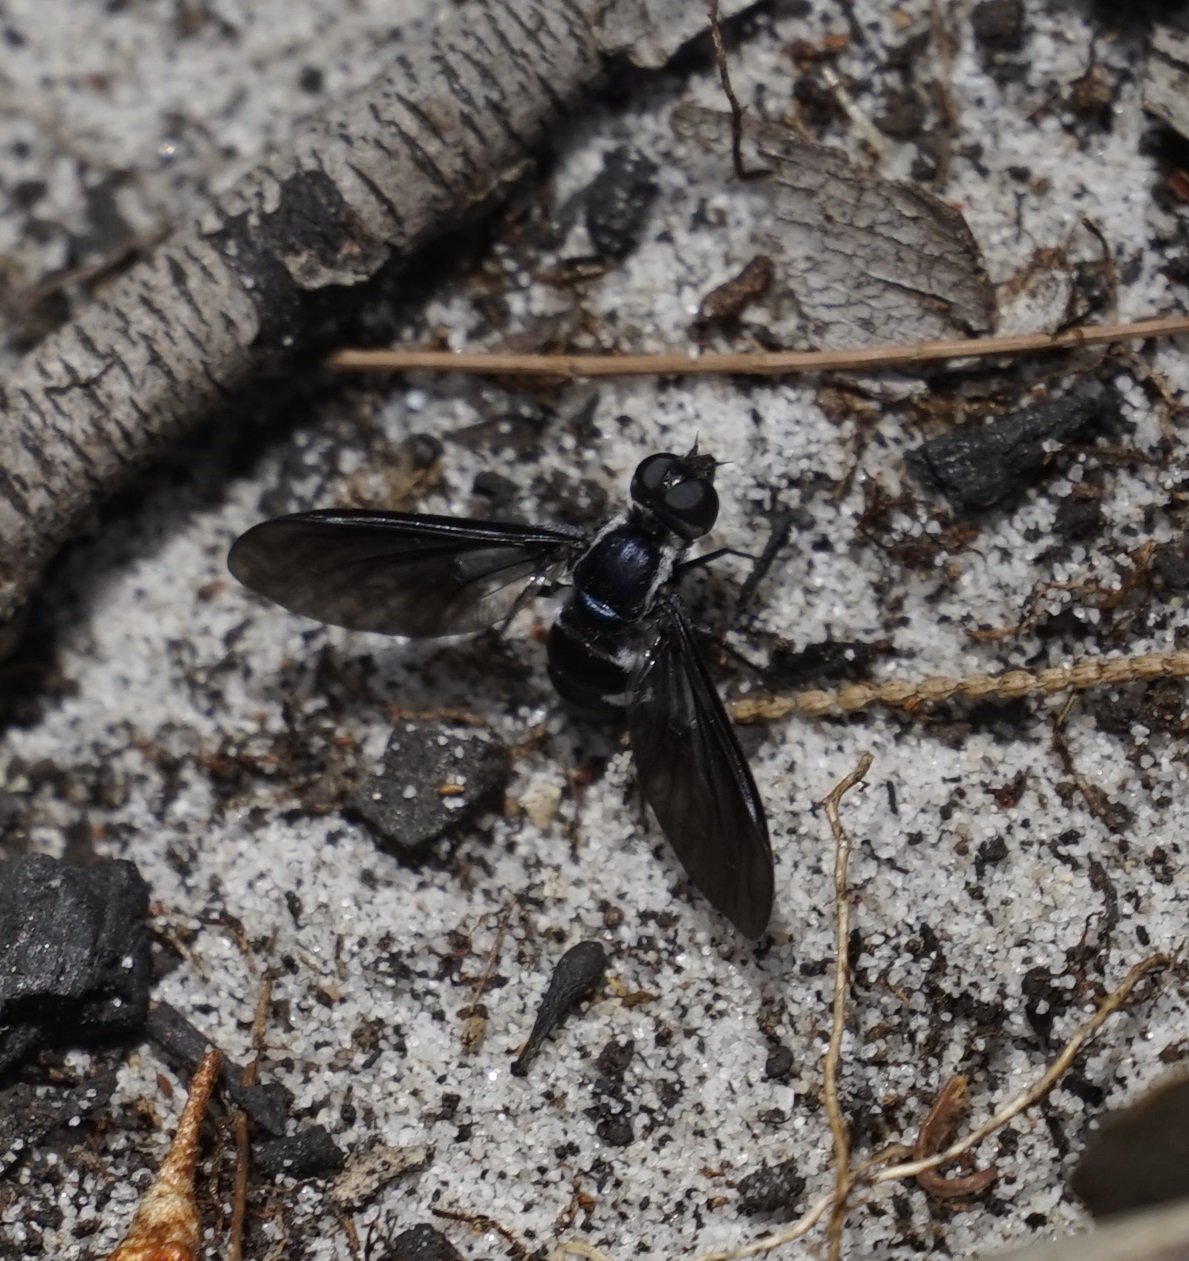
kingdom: Animalia
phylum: Arthropoda
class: Insecta
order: Diptera
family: Bombyliidae
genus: Pseudopenthes
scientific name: Pseudopenthes fenestrata
